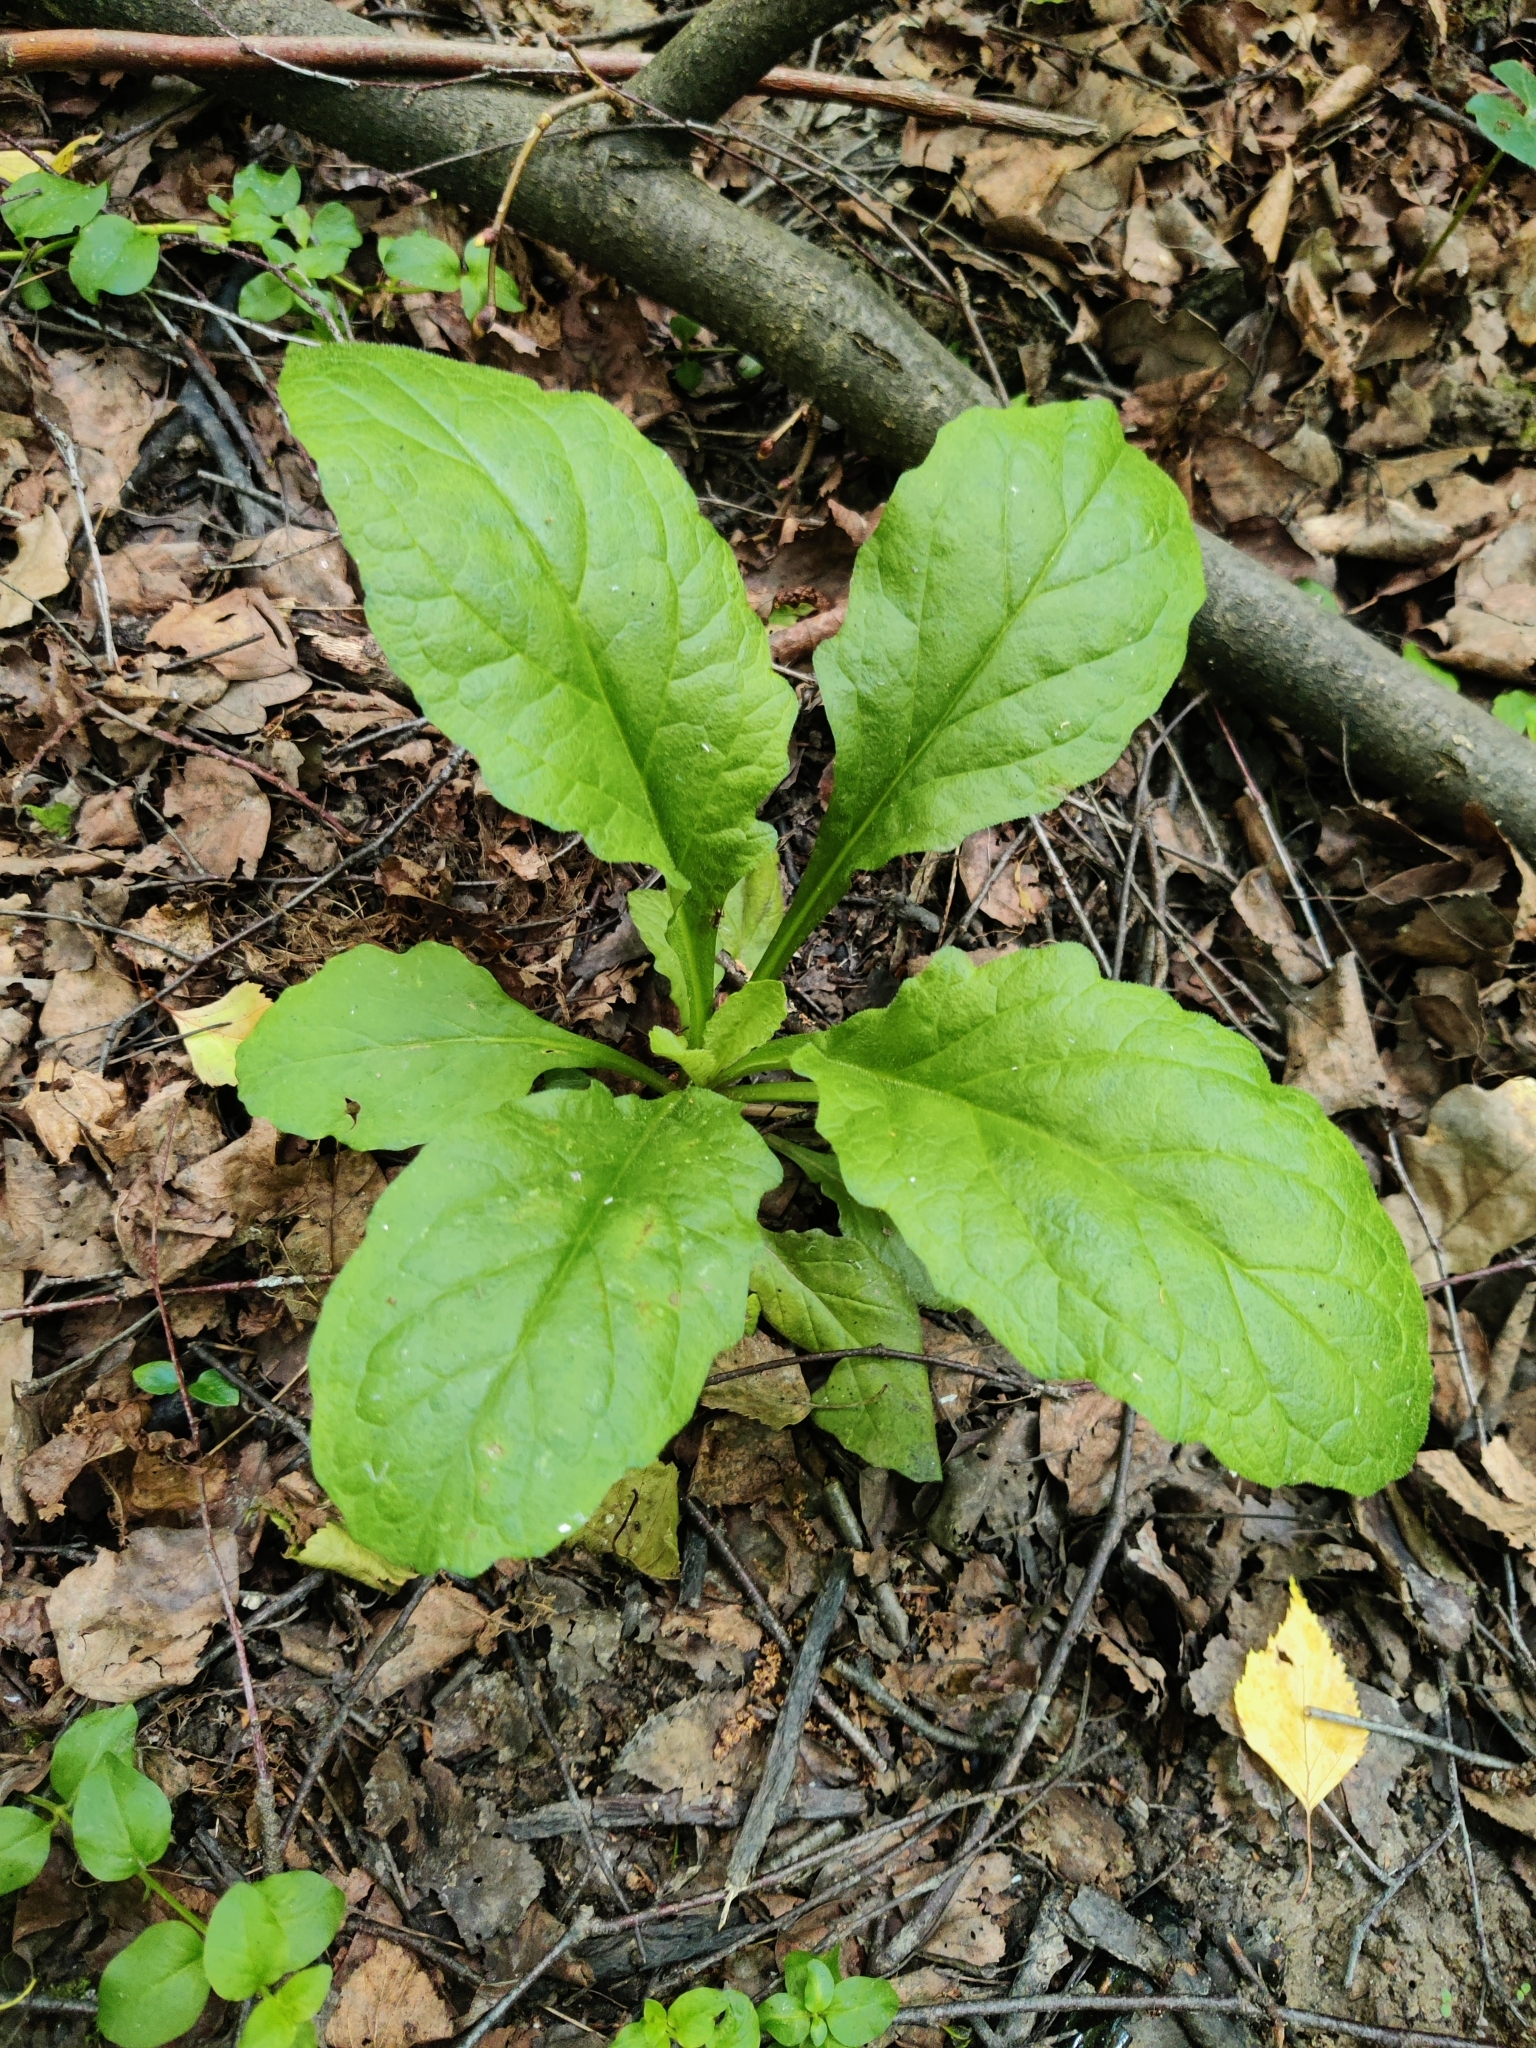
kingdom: Plantae
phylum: Tracheophyta
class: Magnoliopsida
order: Lamiales
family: Lamiaceae
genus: Ajuga
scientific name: Ajuga reptans
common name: Bugle
